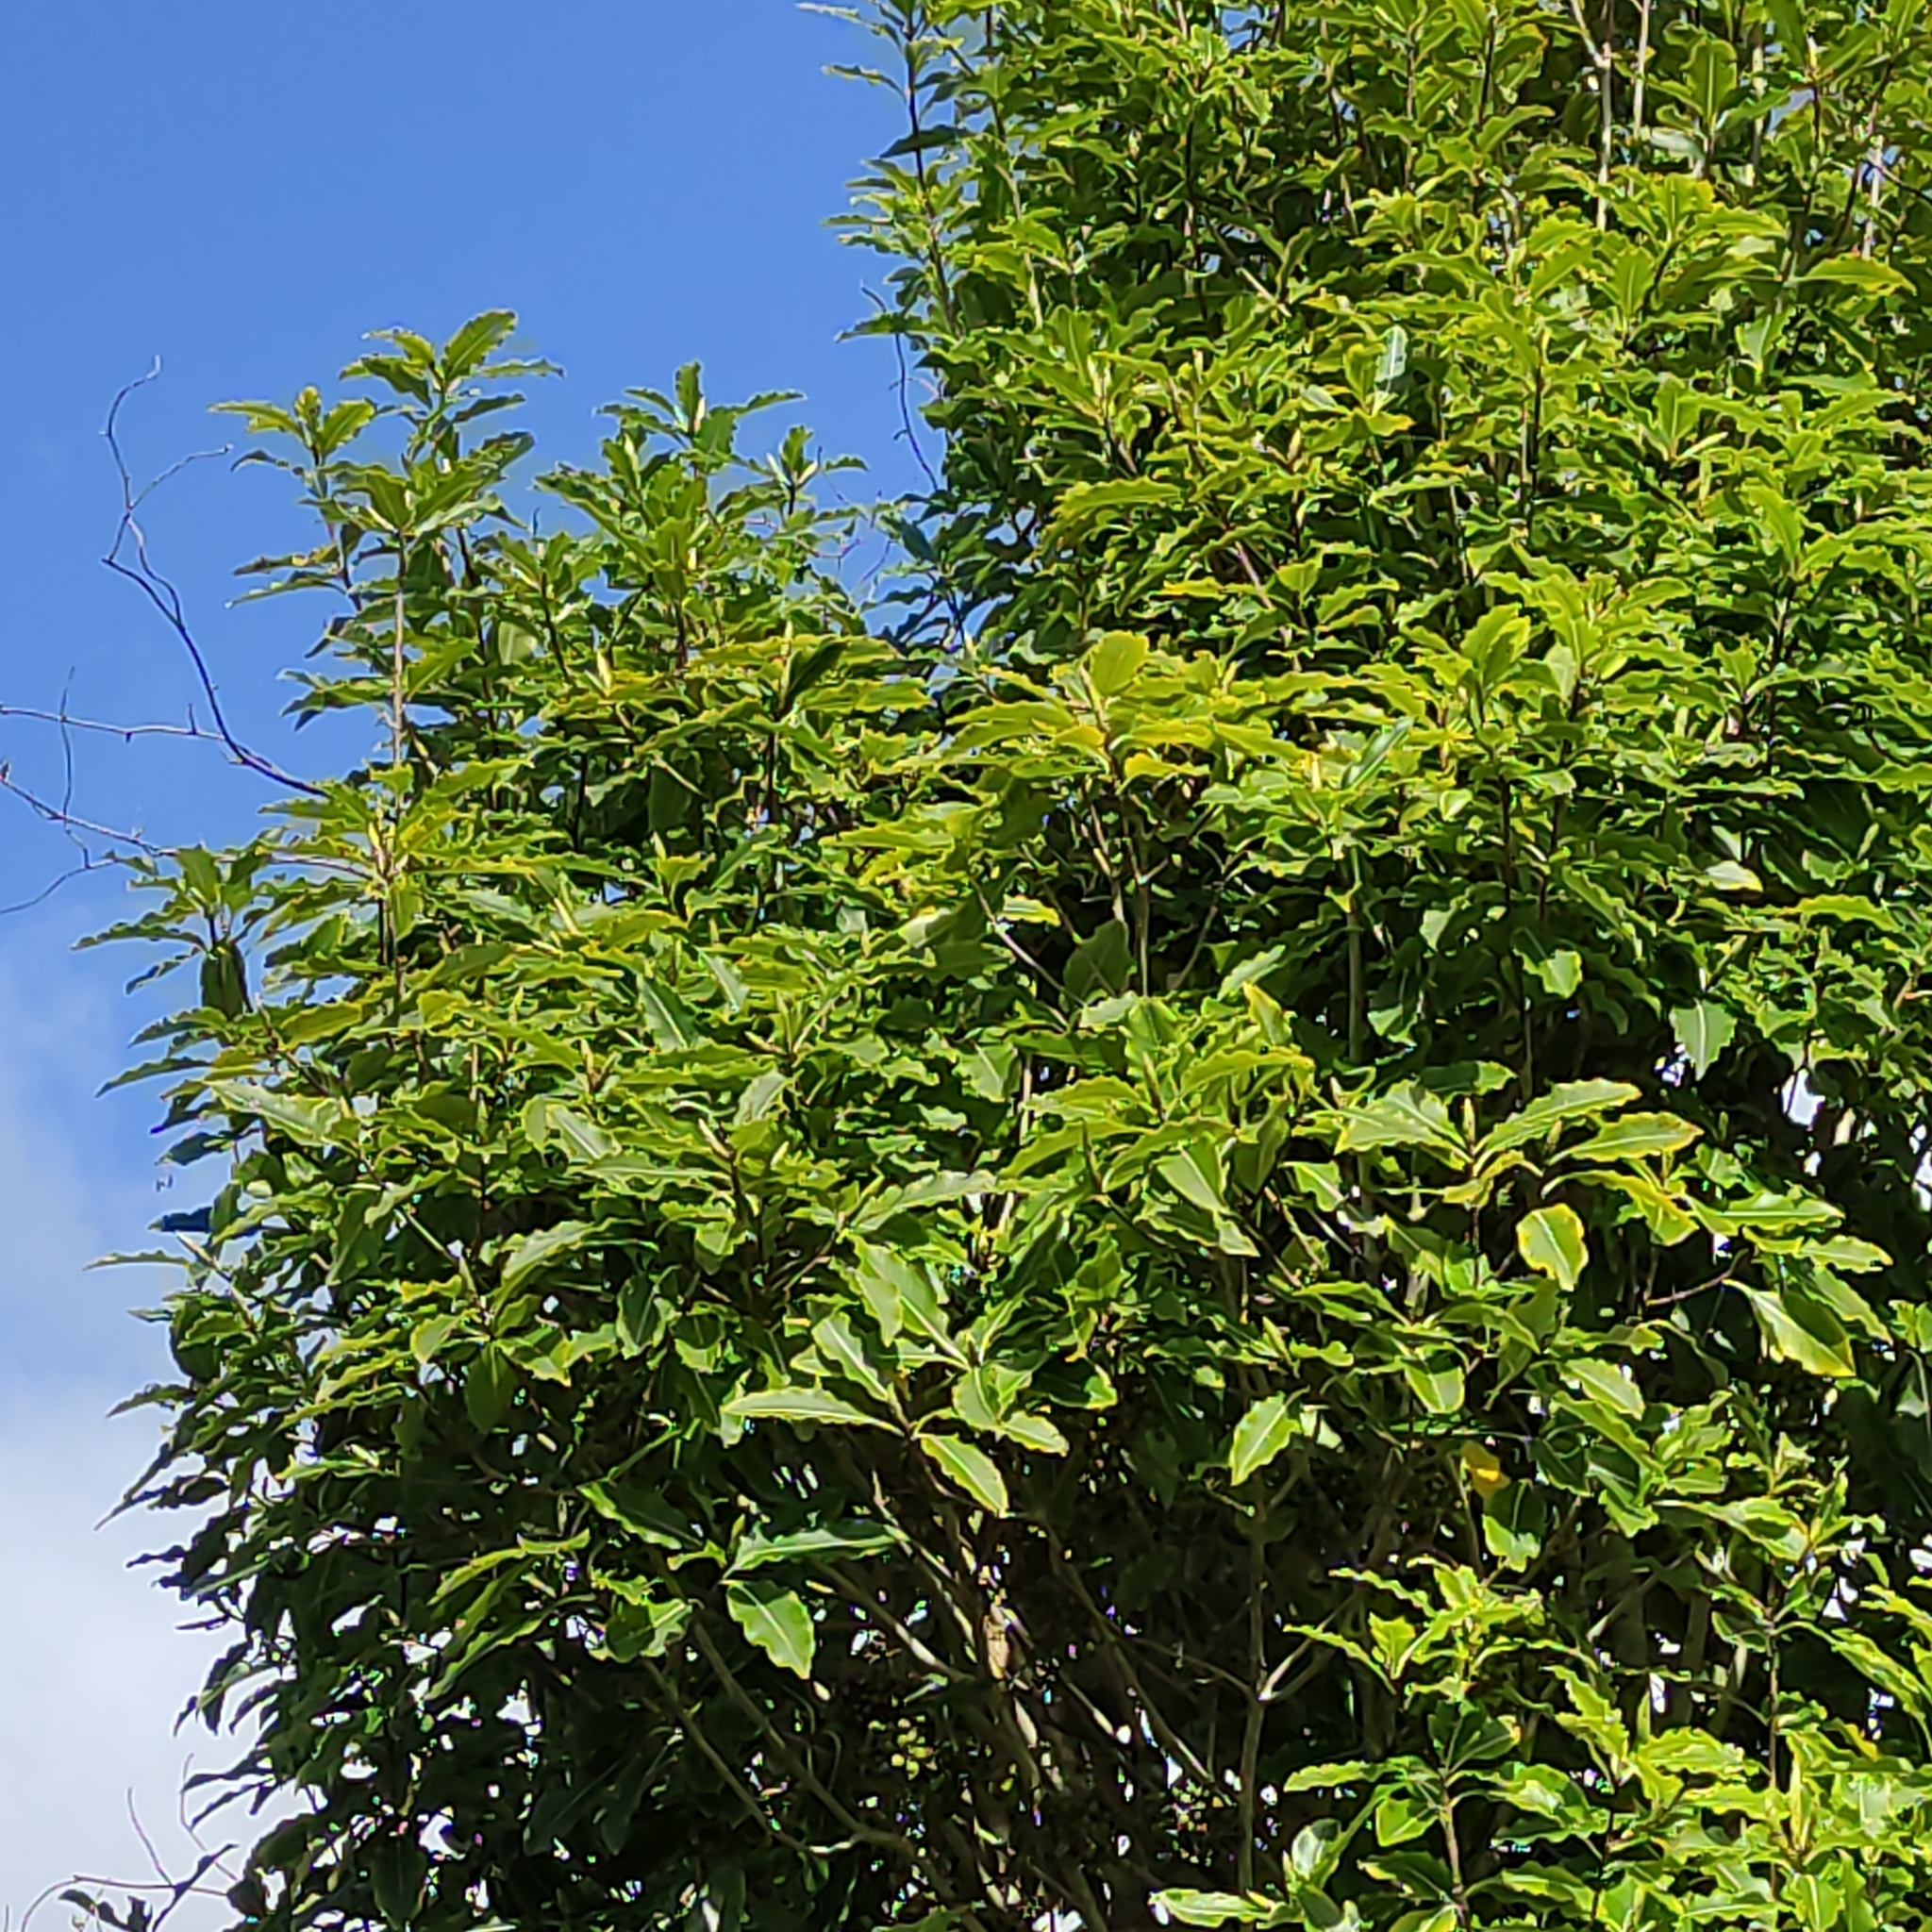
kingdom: Plantae
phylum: Tracheophyta
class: Magnoliopsida
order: Apiales
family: Pittosporaceae
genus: Pittosporum
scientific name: Pittosporum eugenioides
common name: Lemonwood
